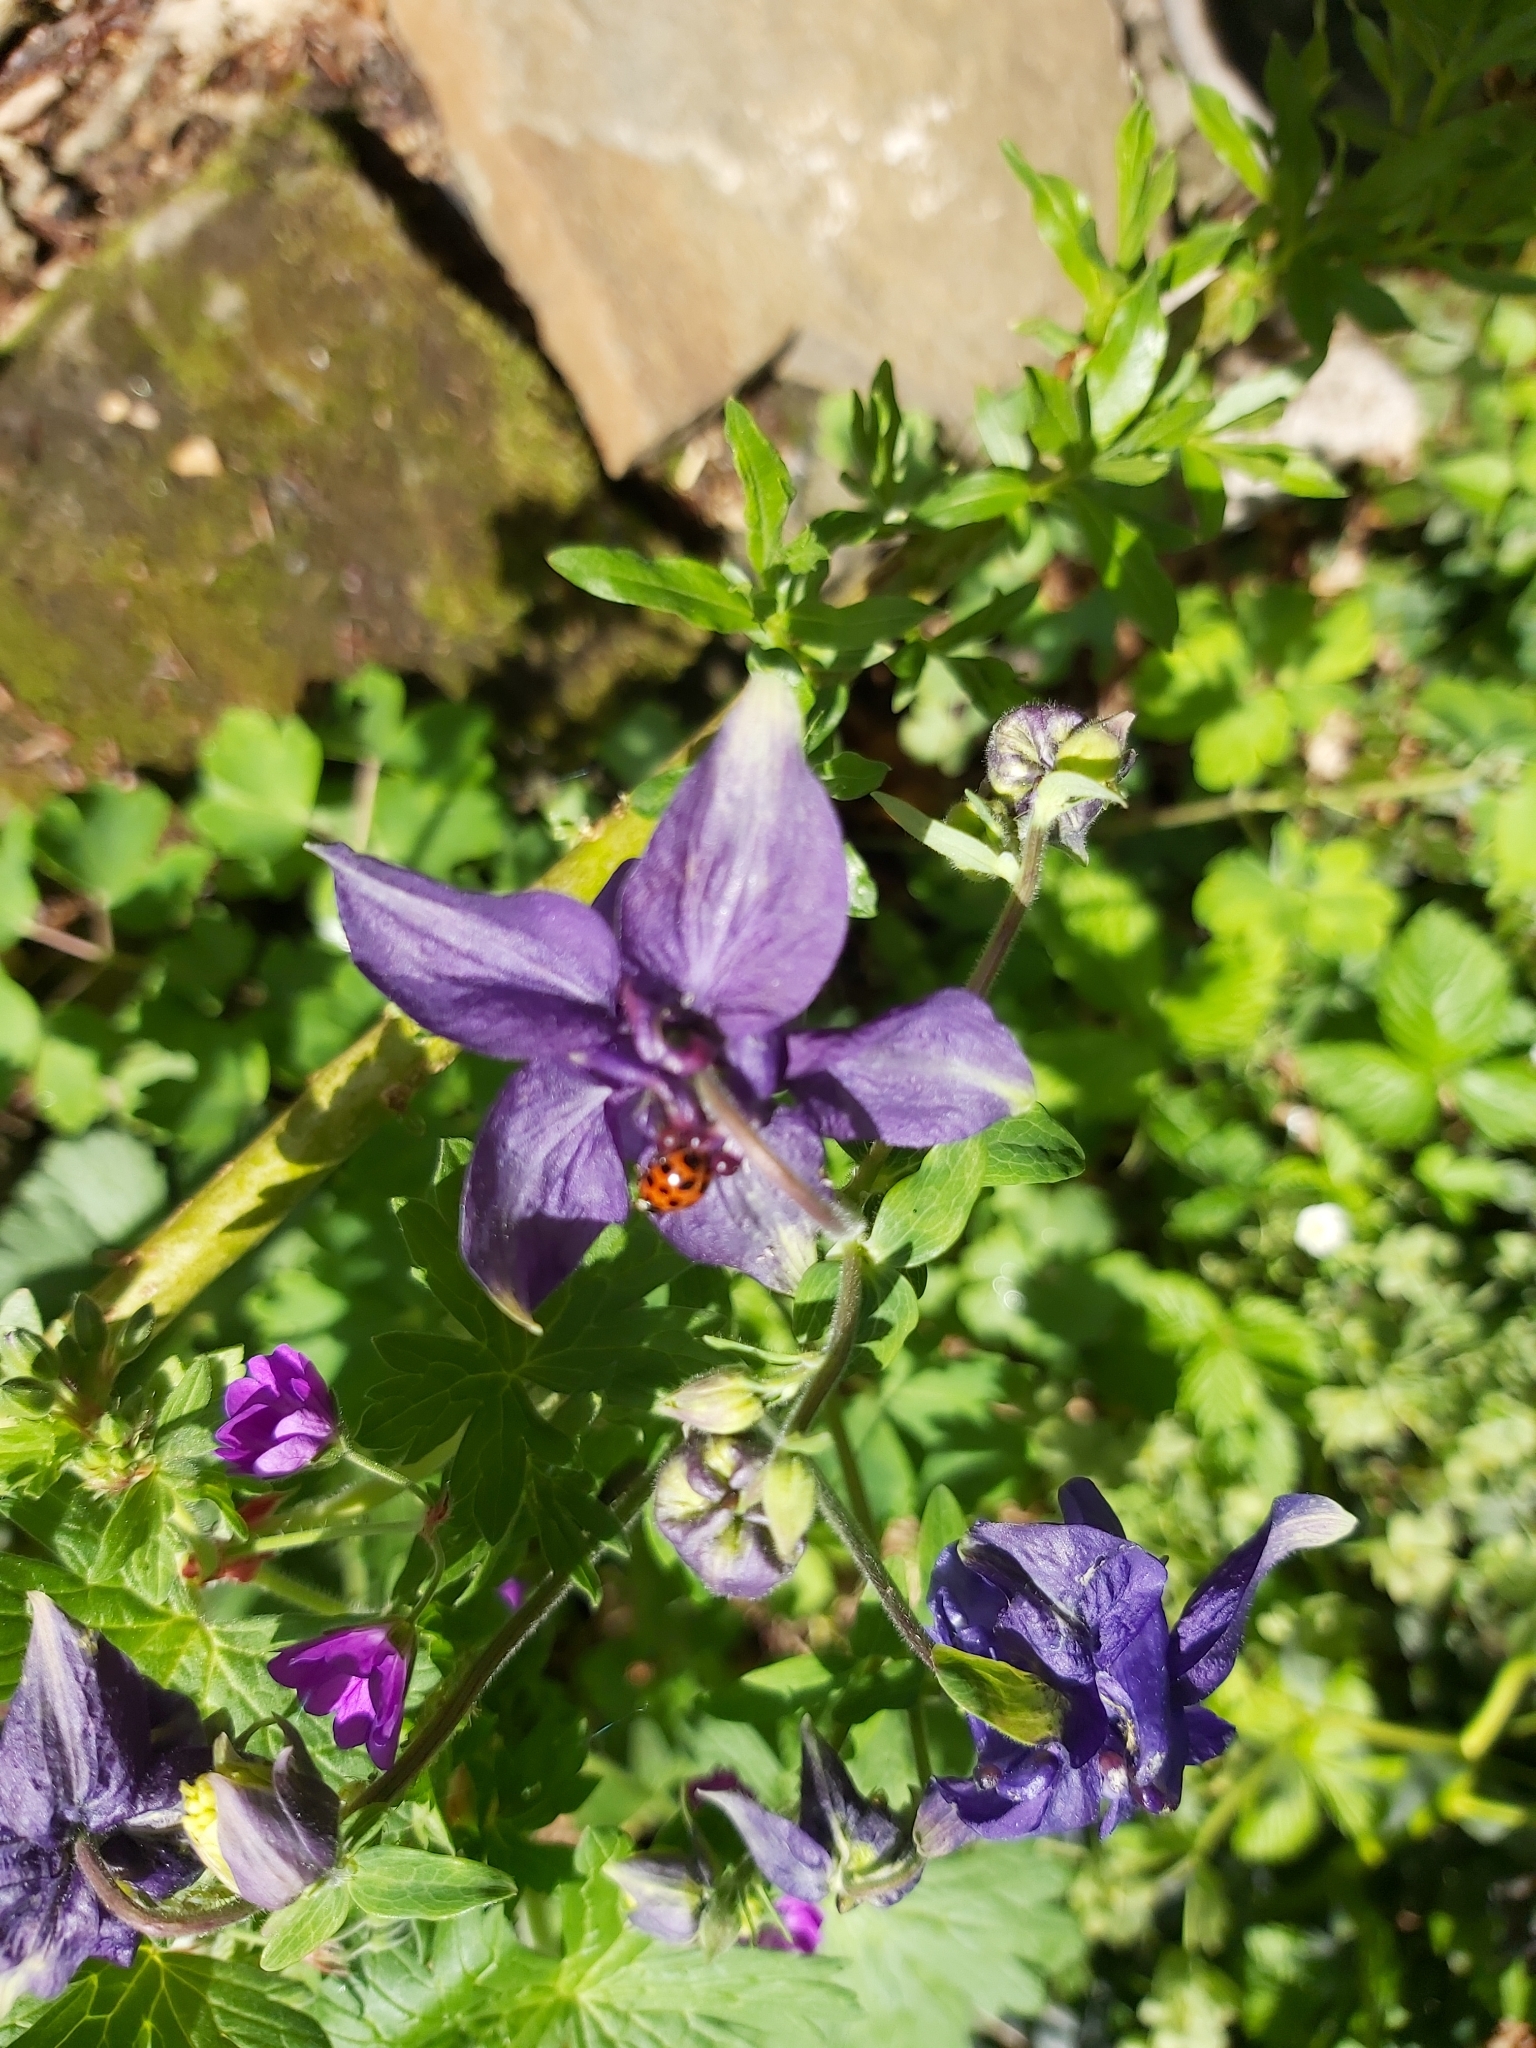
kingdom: Animalia
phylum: Arthropoda
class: Insecta
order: Coleoptera
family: Coccinellidae
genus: Harmonia
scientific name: Harmonia axyridis
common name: Harlequin ladybird
